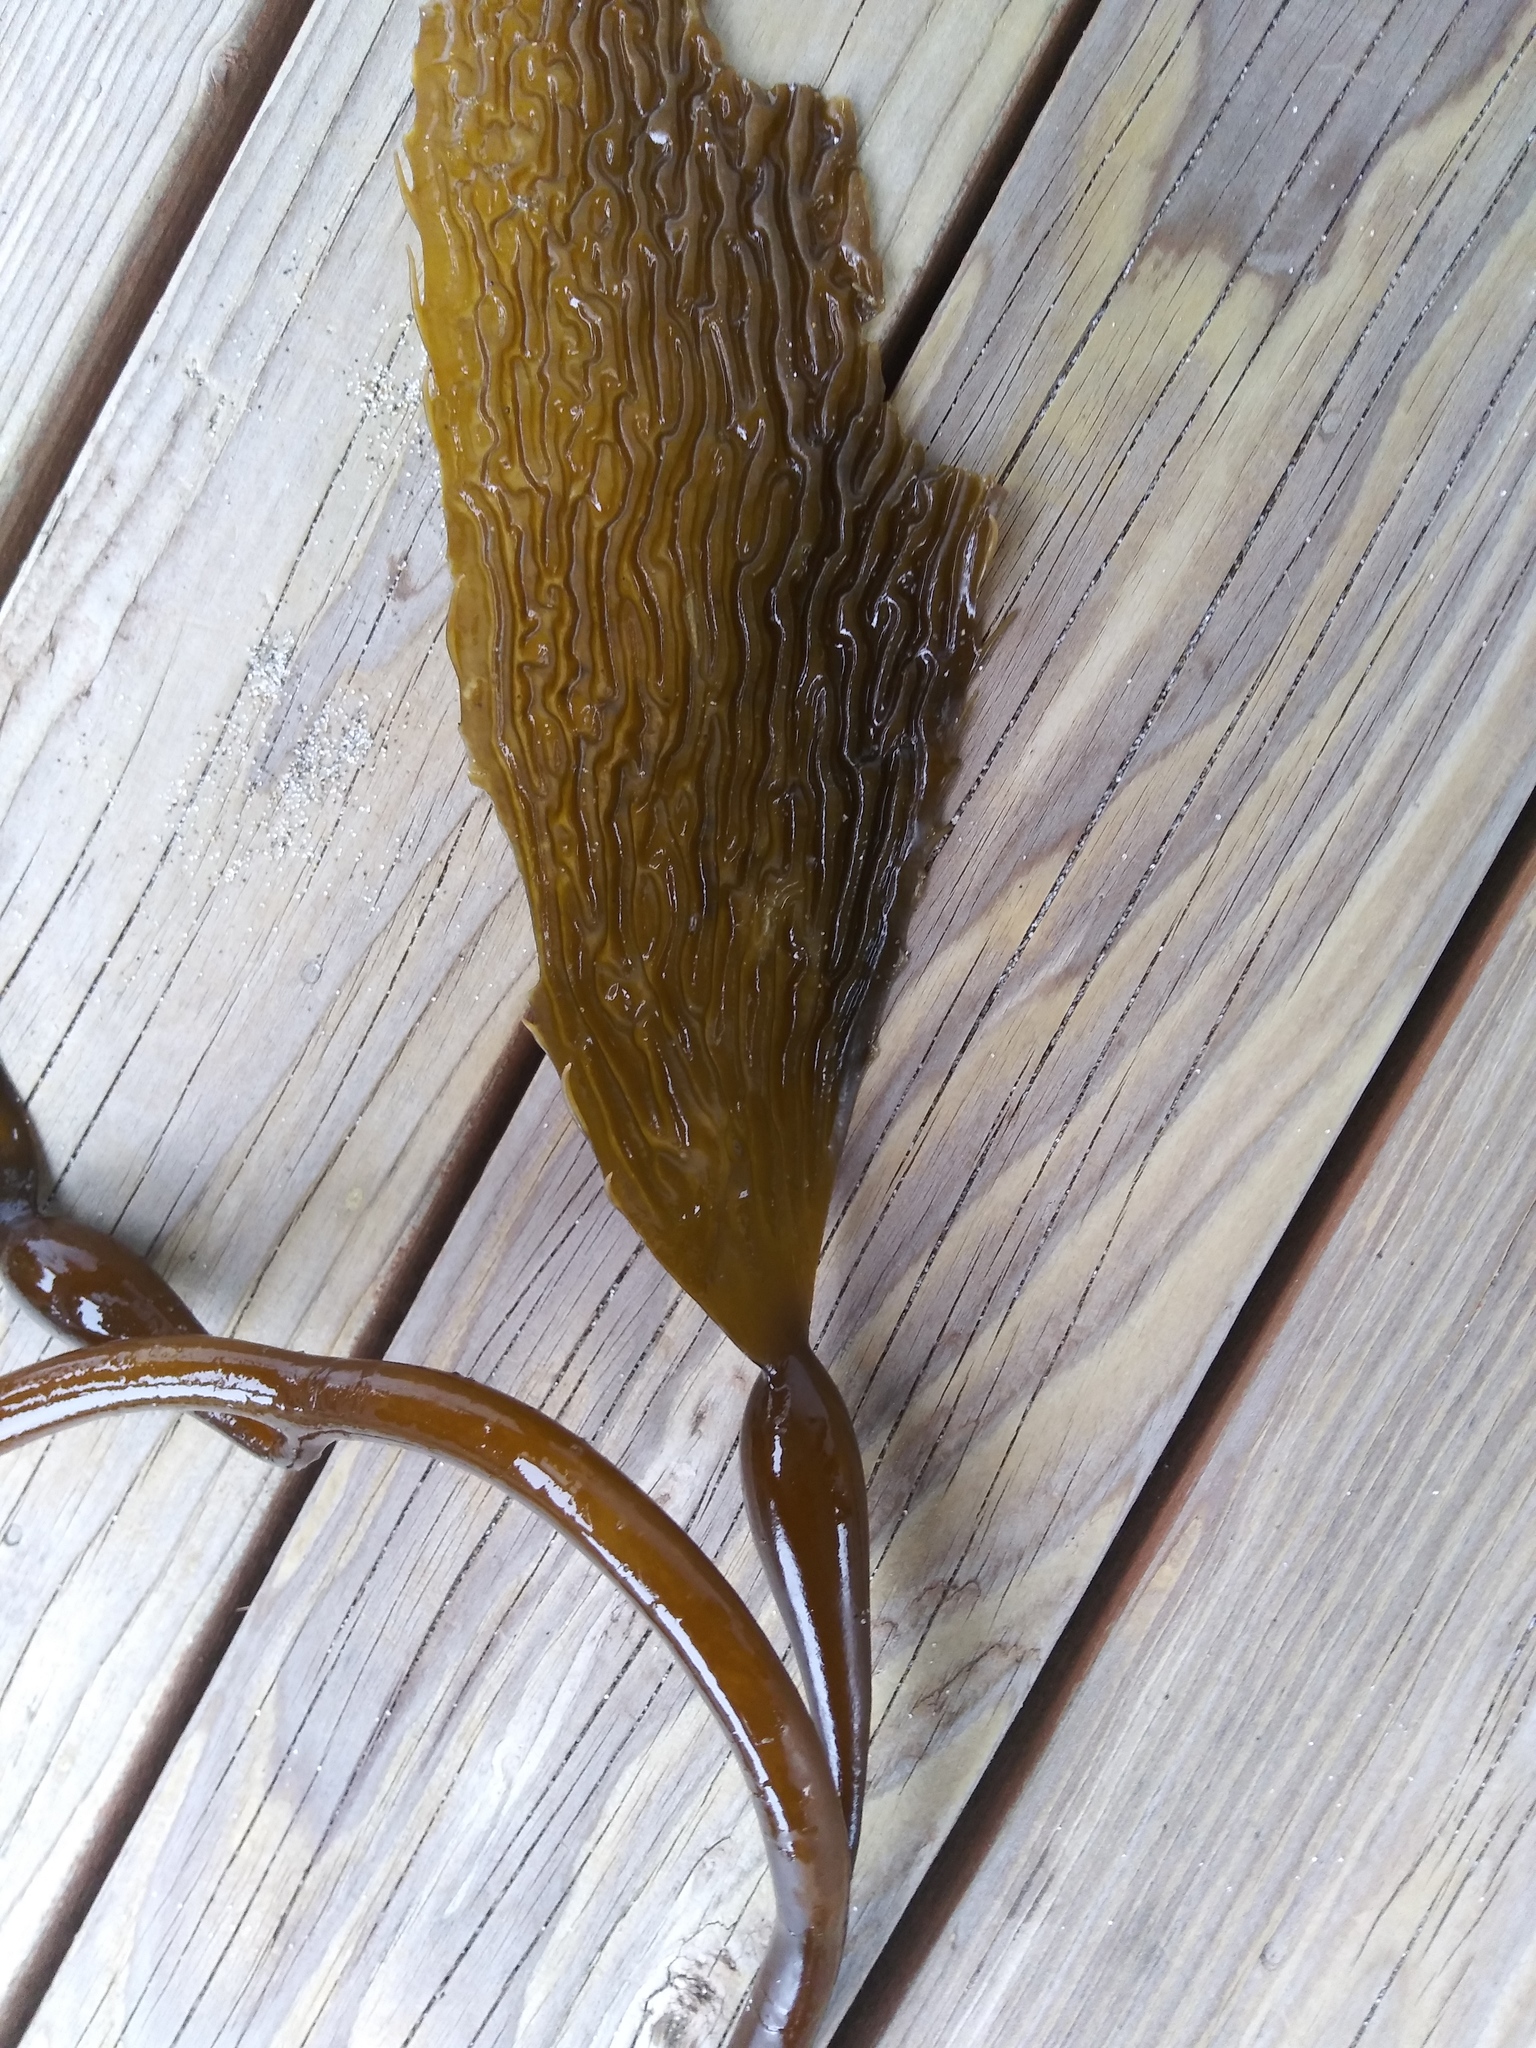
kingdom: Chromista
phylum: Ochrophyta
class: Phaeophyceae
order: Laminariales
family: Laminariaceae
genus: Macrocystis
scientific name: Macrocystis pyrifera
